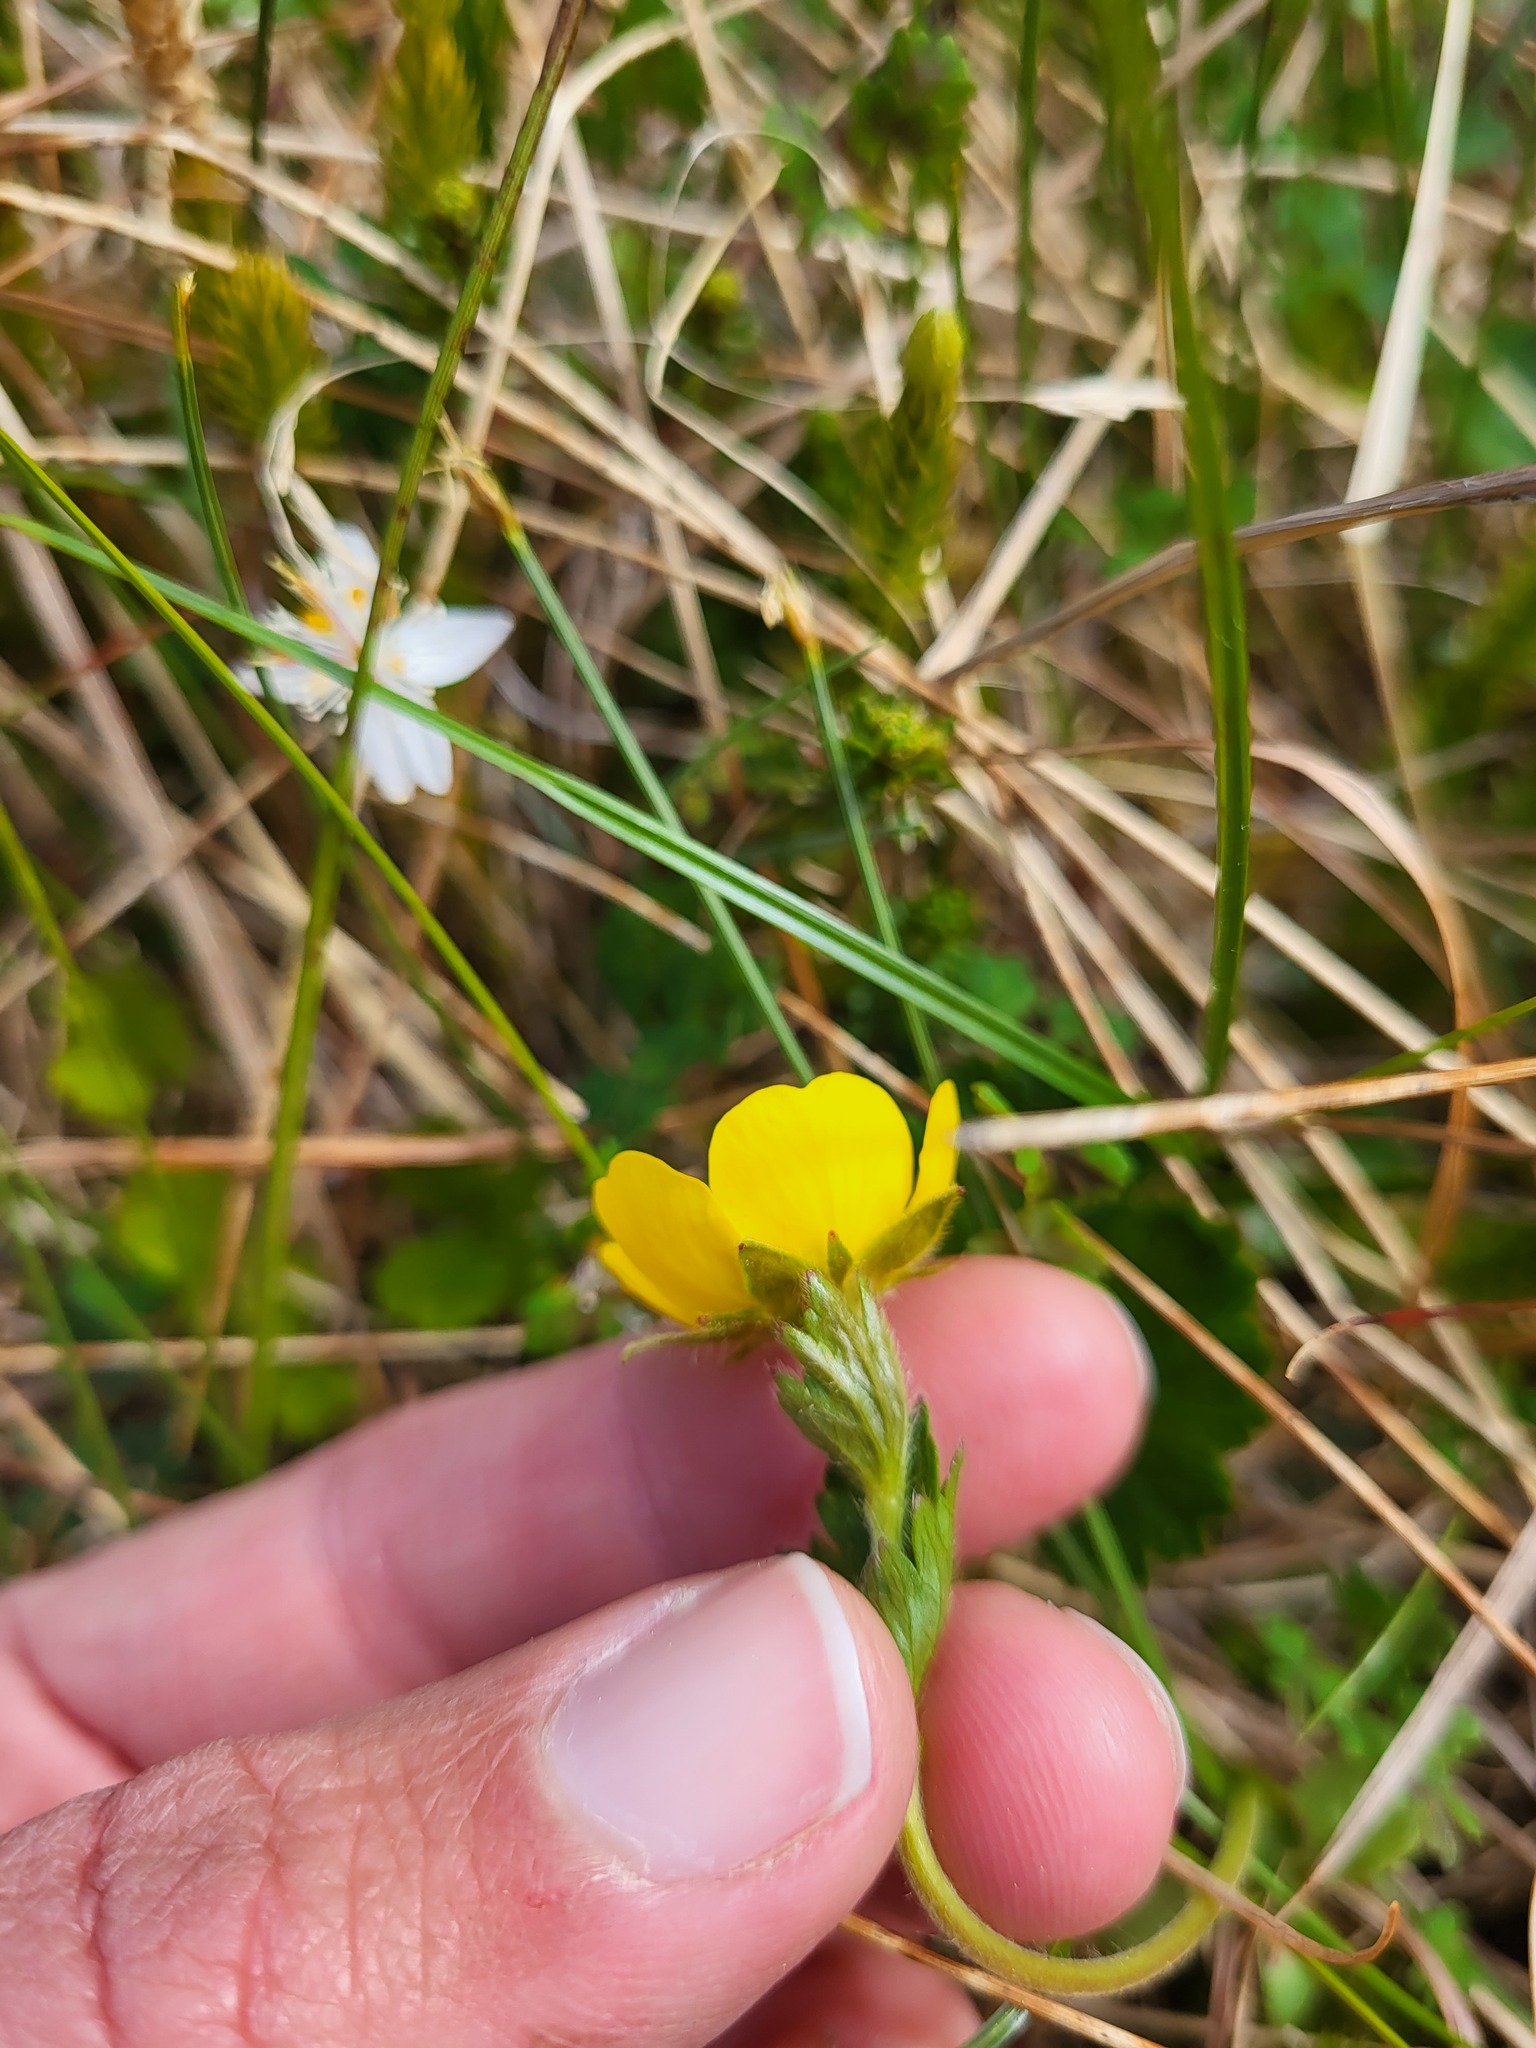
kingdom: Plantae
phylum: Tracheophyta
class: Magnoliopsida
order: Rosales
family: Rosaceae
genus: Geum
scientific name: Geum calthifolium
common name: Caltha-leaved avens
